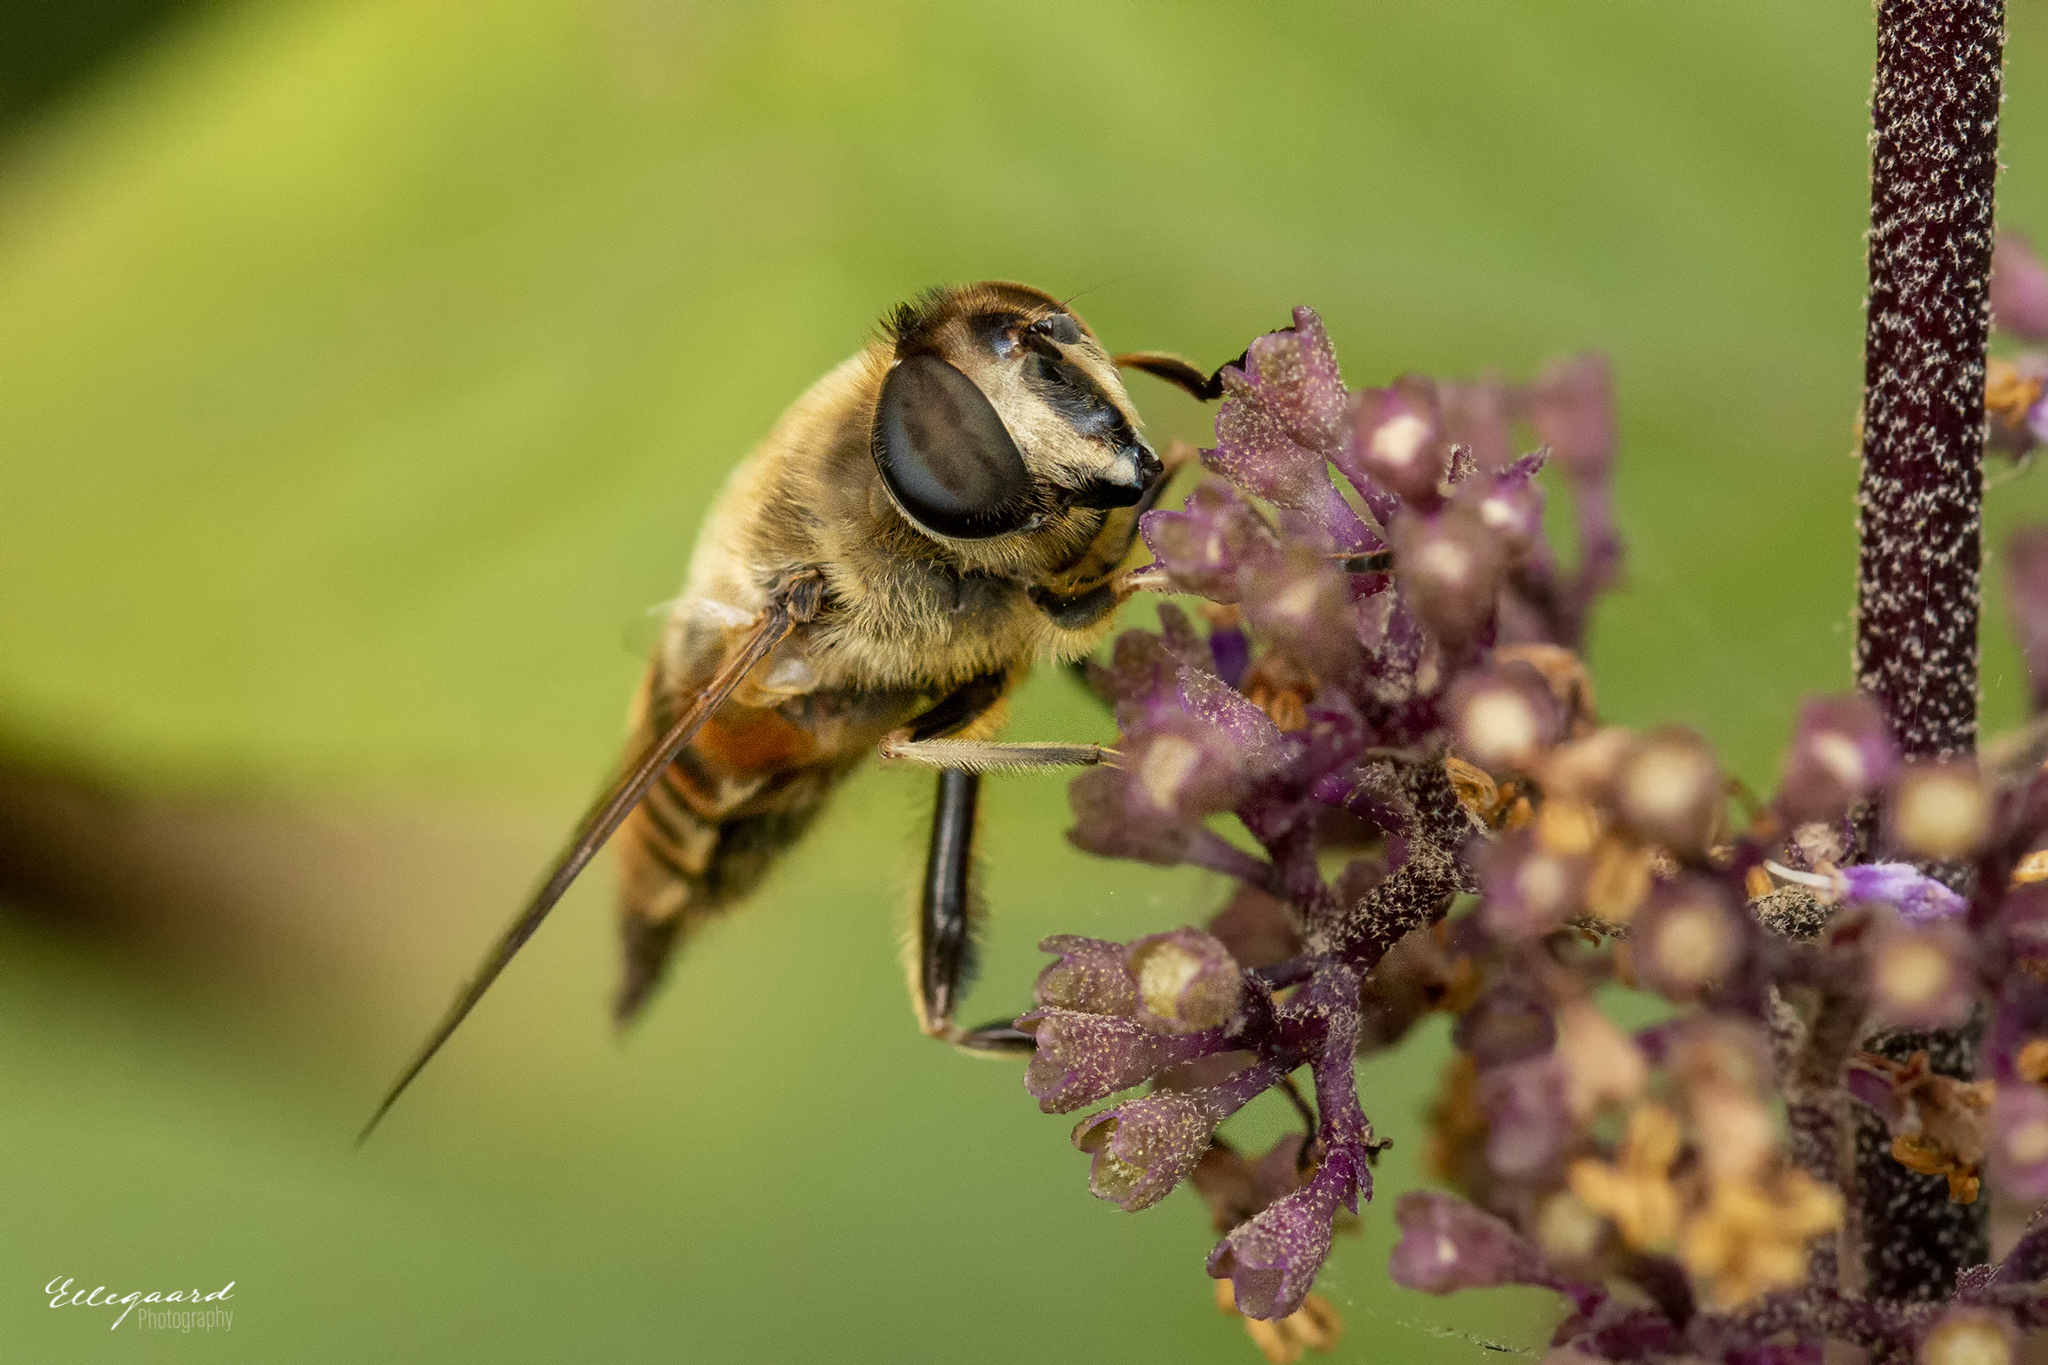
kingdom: Animalia
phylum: Arthropoda
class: Insecta
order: Diptera
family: Syrphidae
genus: Eristalis
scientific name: Eristalis tenax
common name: Drone fly
